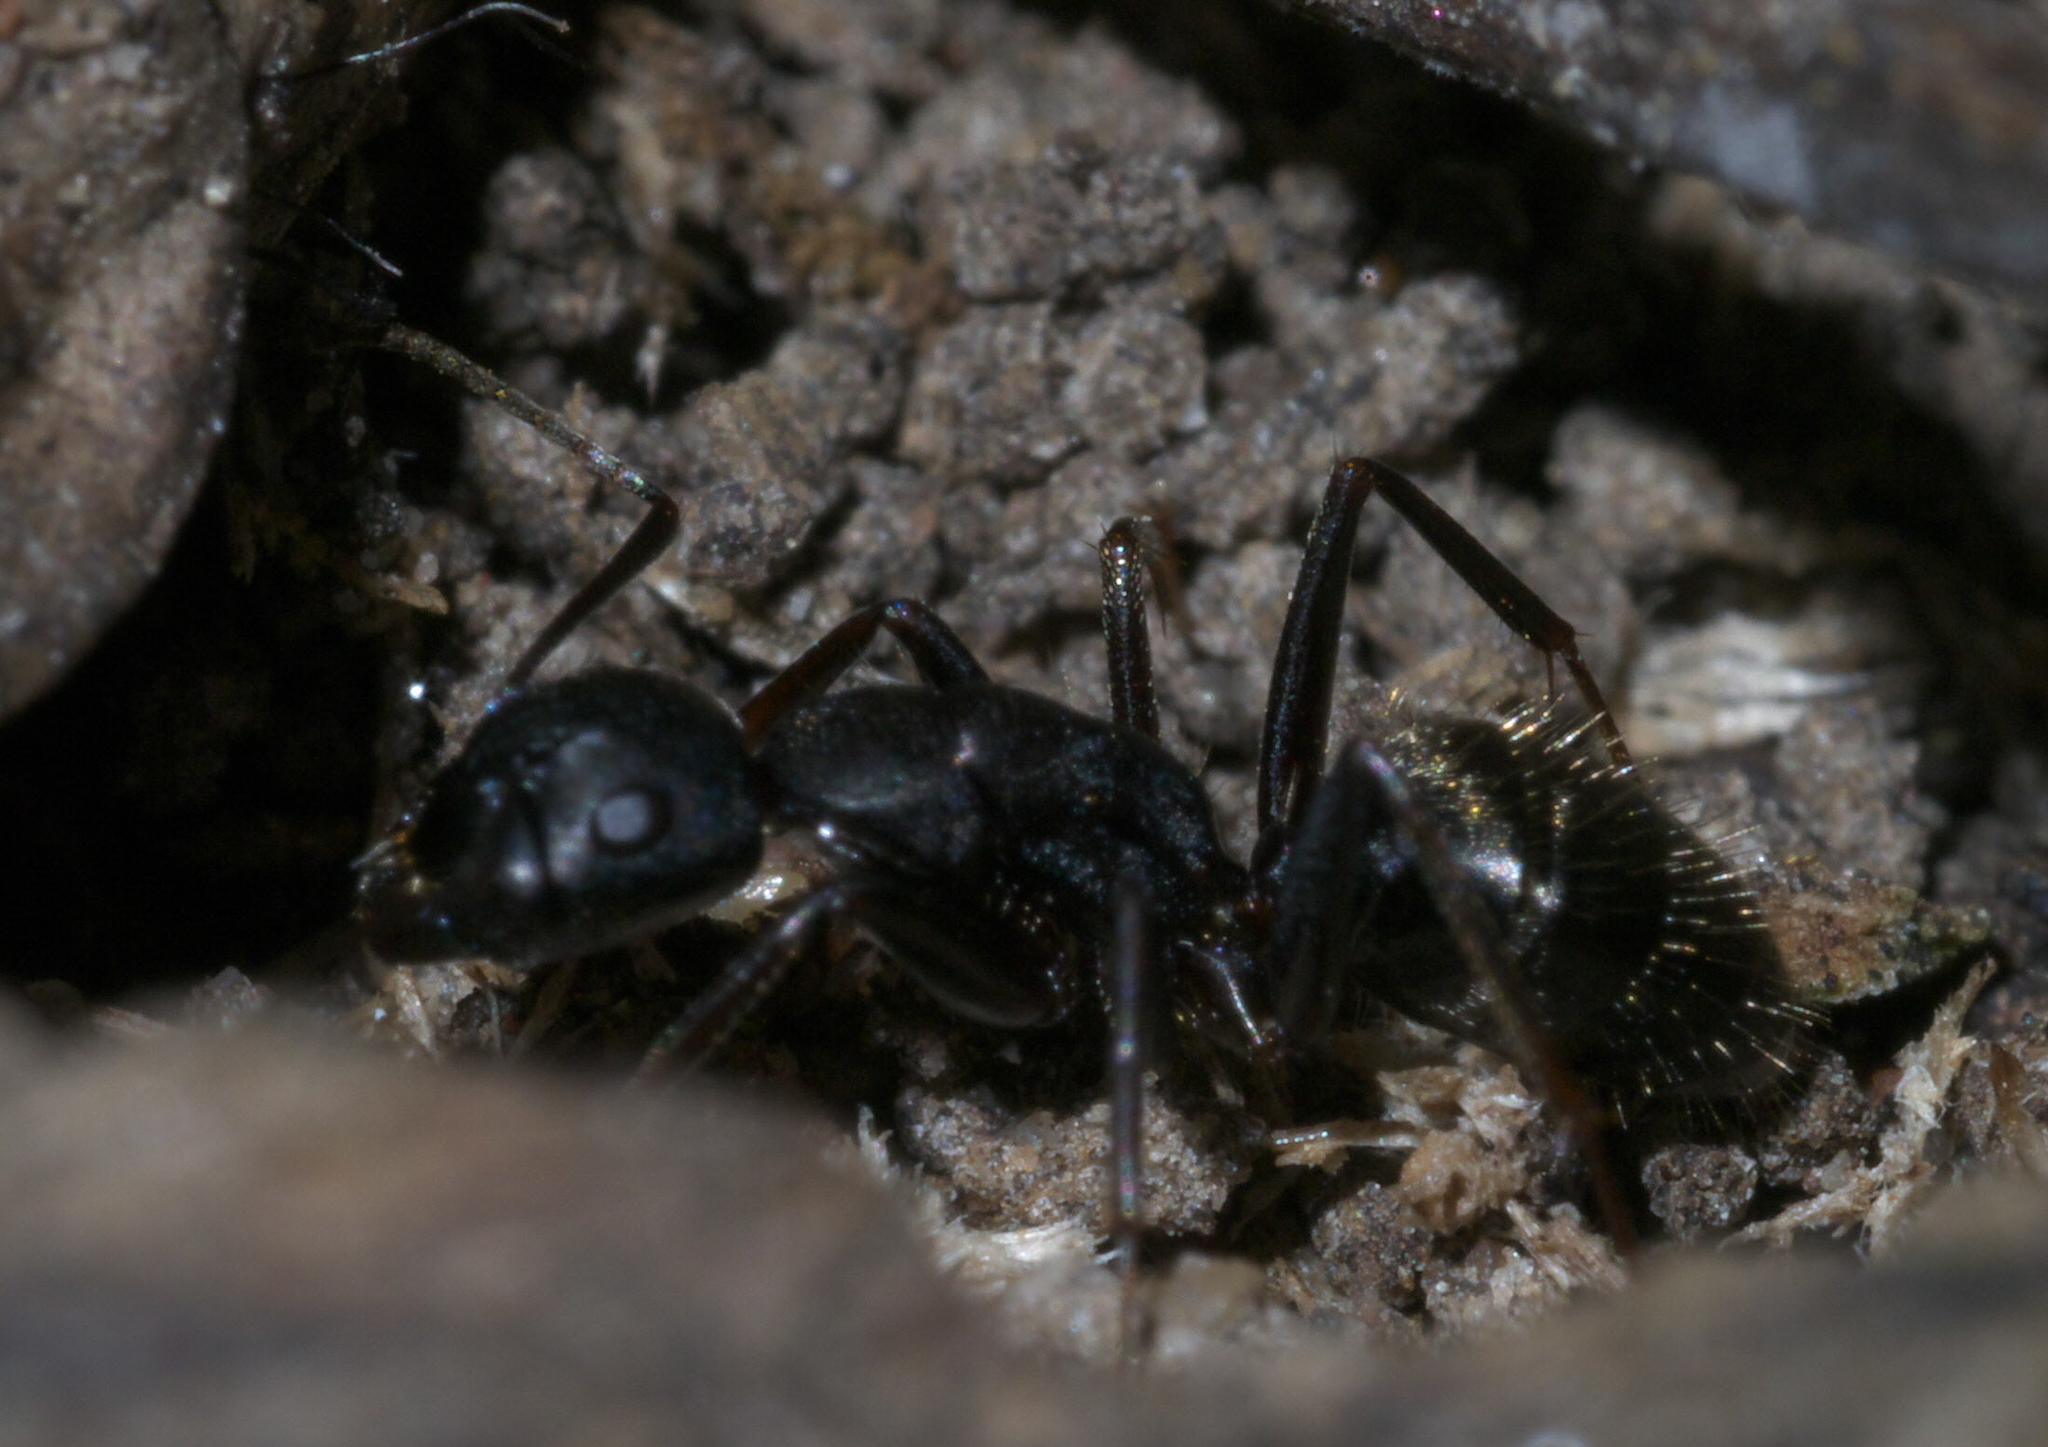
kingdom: Animalia
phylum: Arthropoda
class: Insecta
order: Hymenoptera
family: Formicidae
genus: Camponotus
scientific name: Camponotus pennsylvanicus
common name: Black carpenter ant
